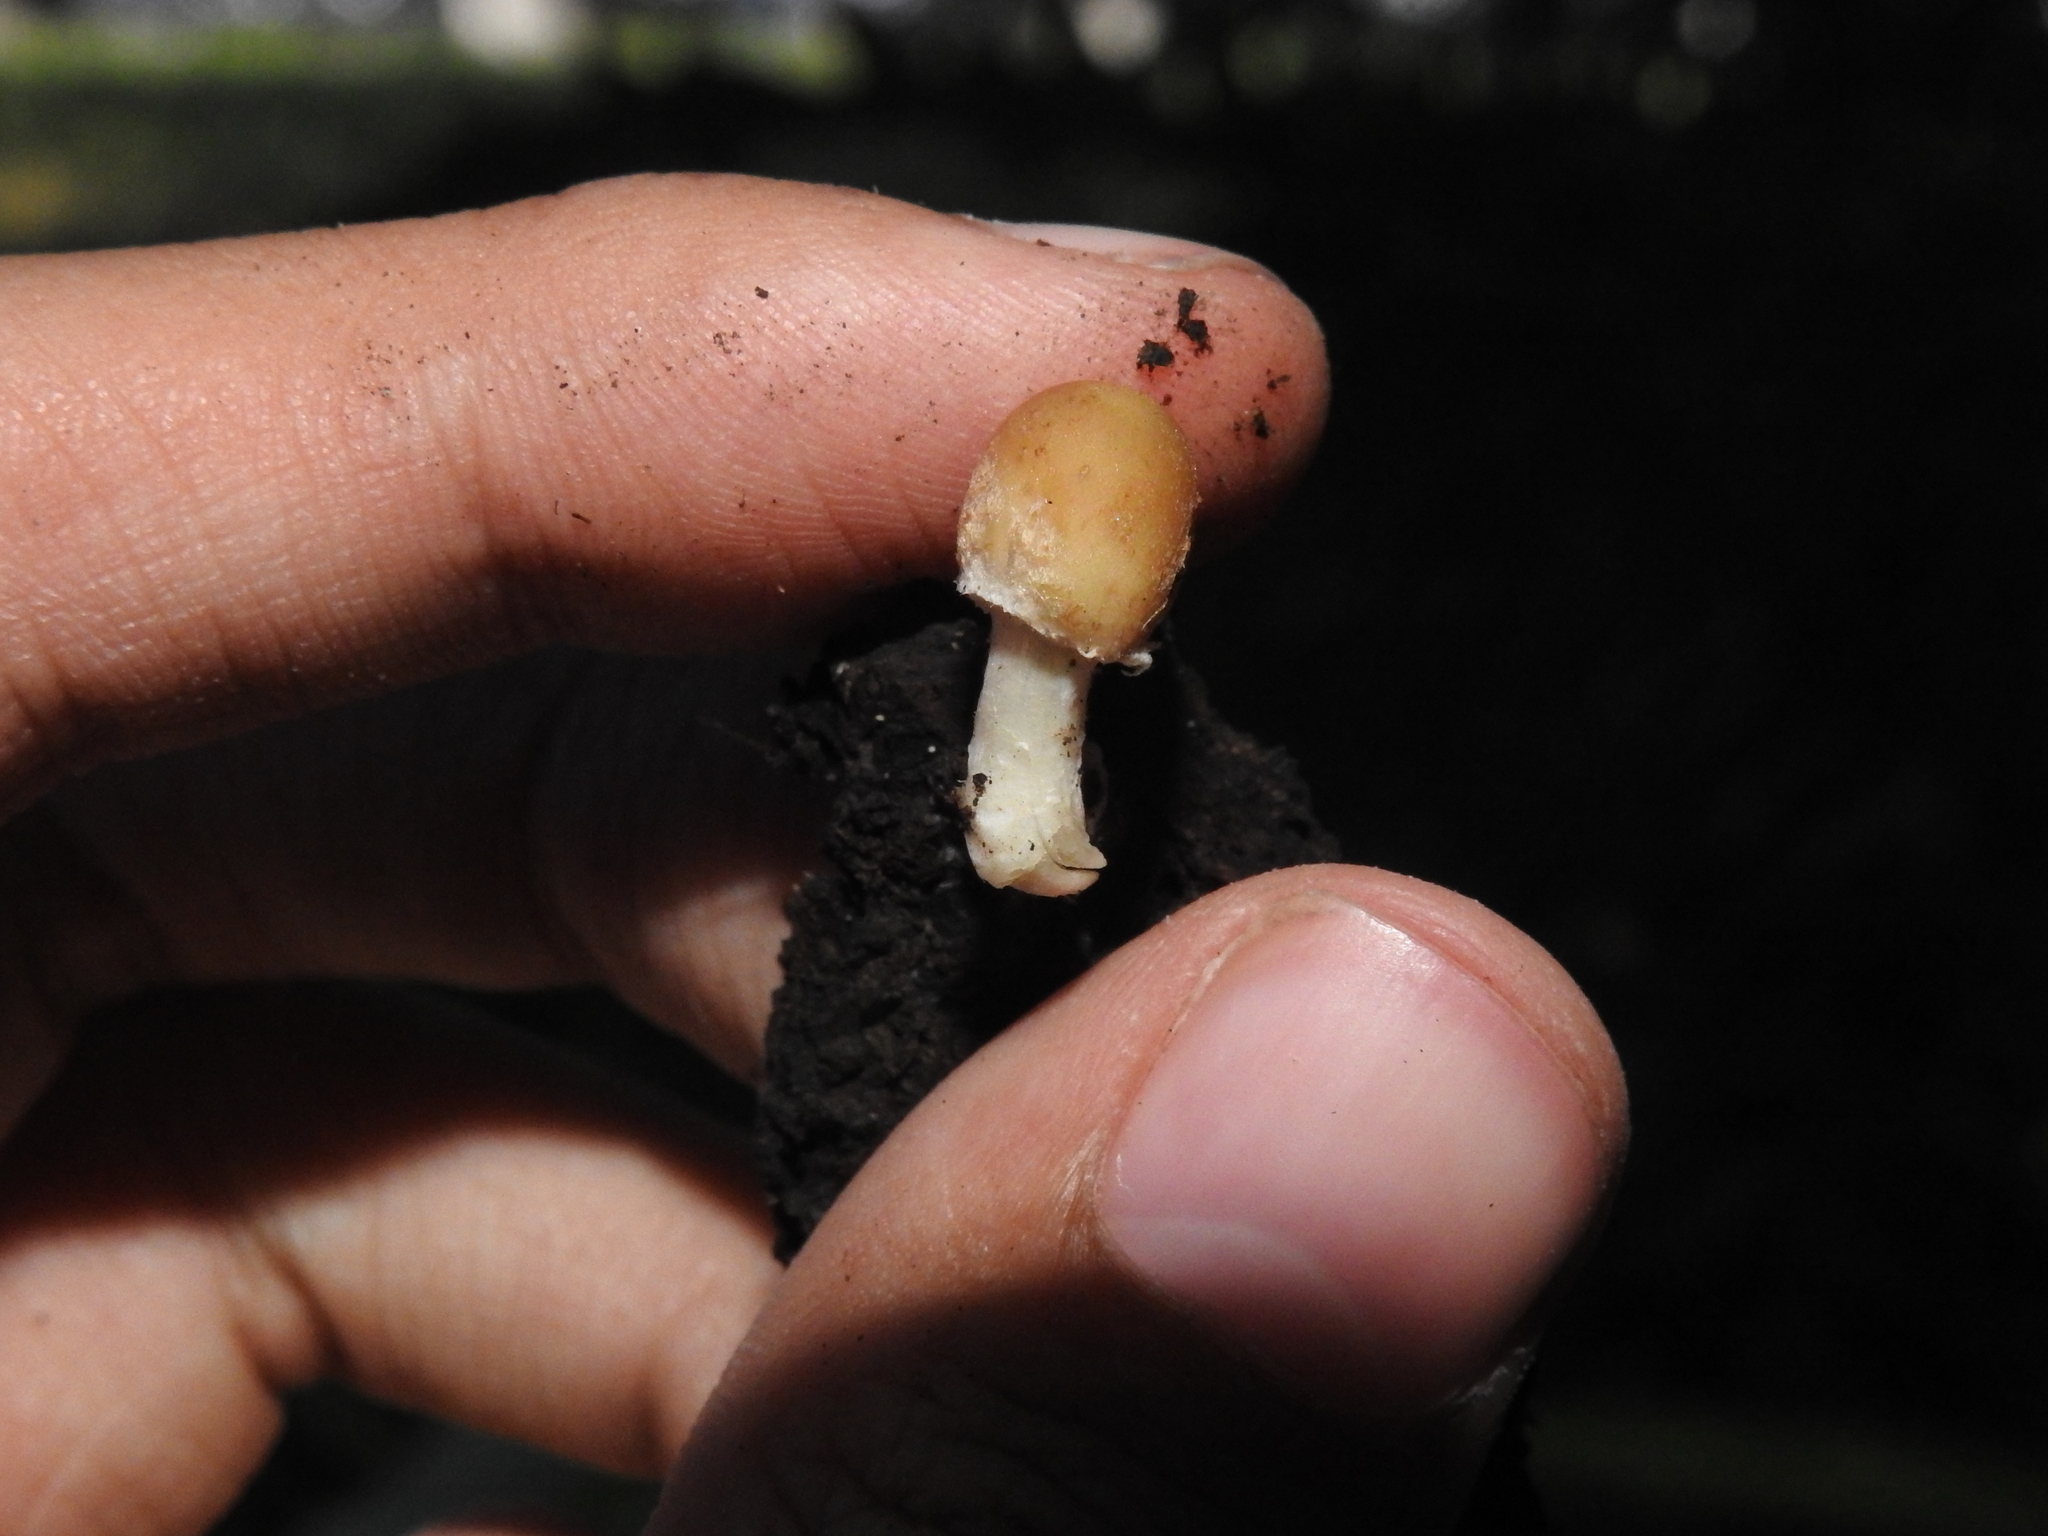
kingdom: Fungi
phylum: Basidiomycota
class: Agaricomycetes
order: Agaricales
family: Psathyrellaceae
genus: Candolleomyces
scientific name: Candolleomyces candolleanus
